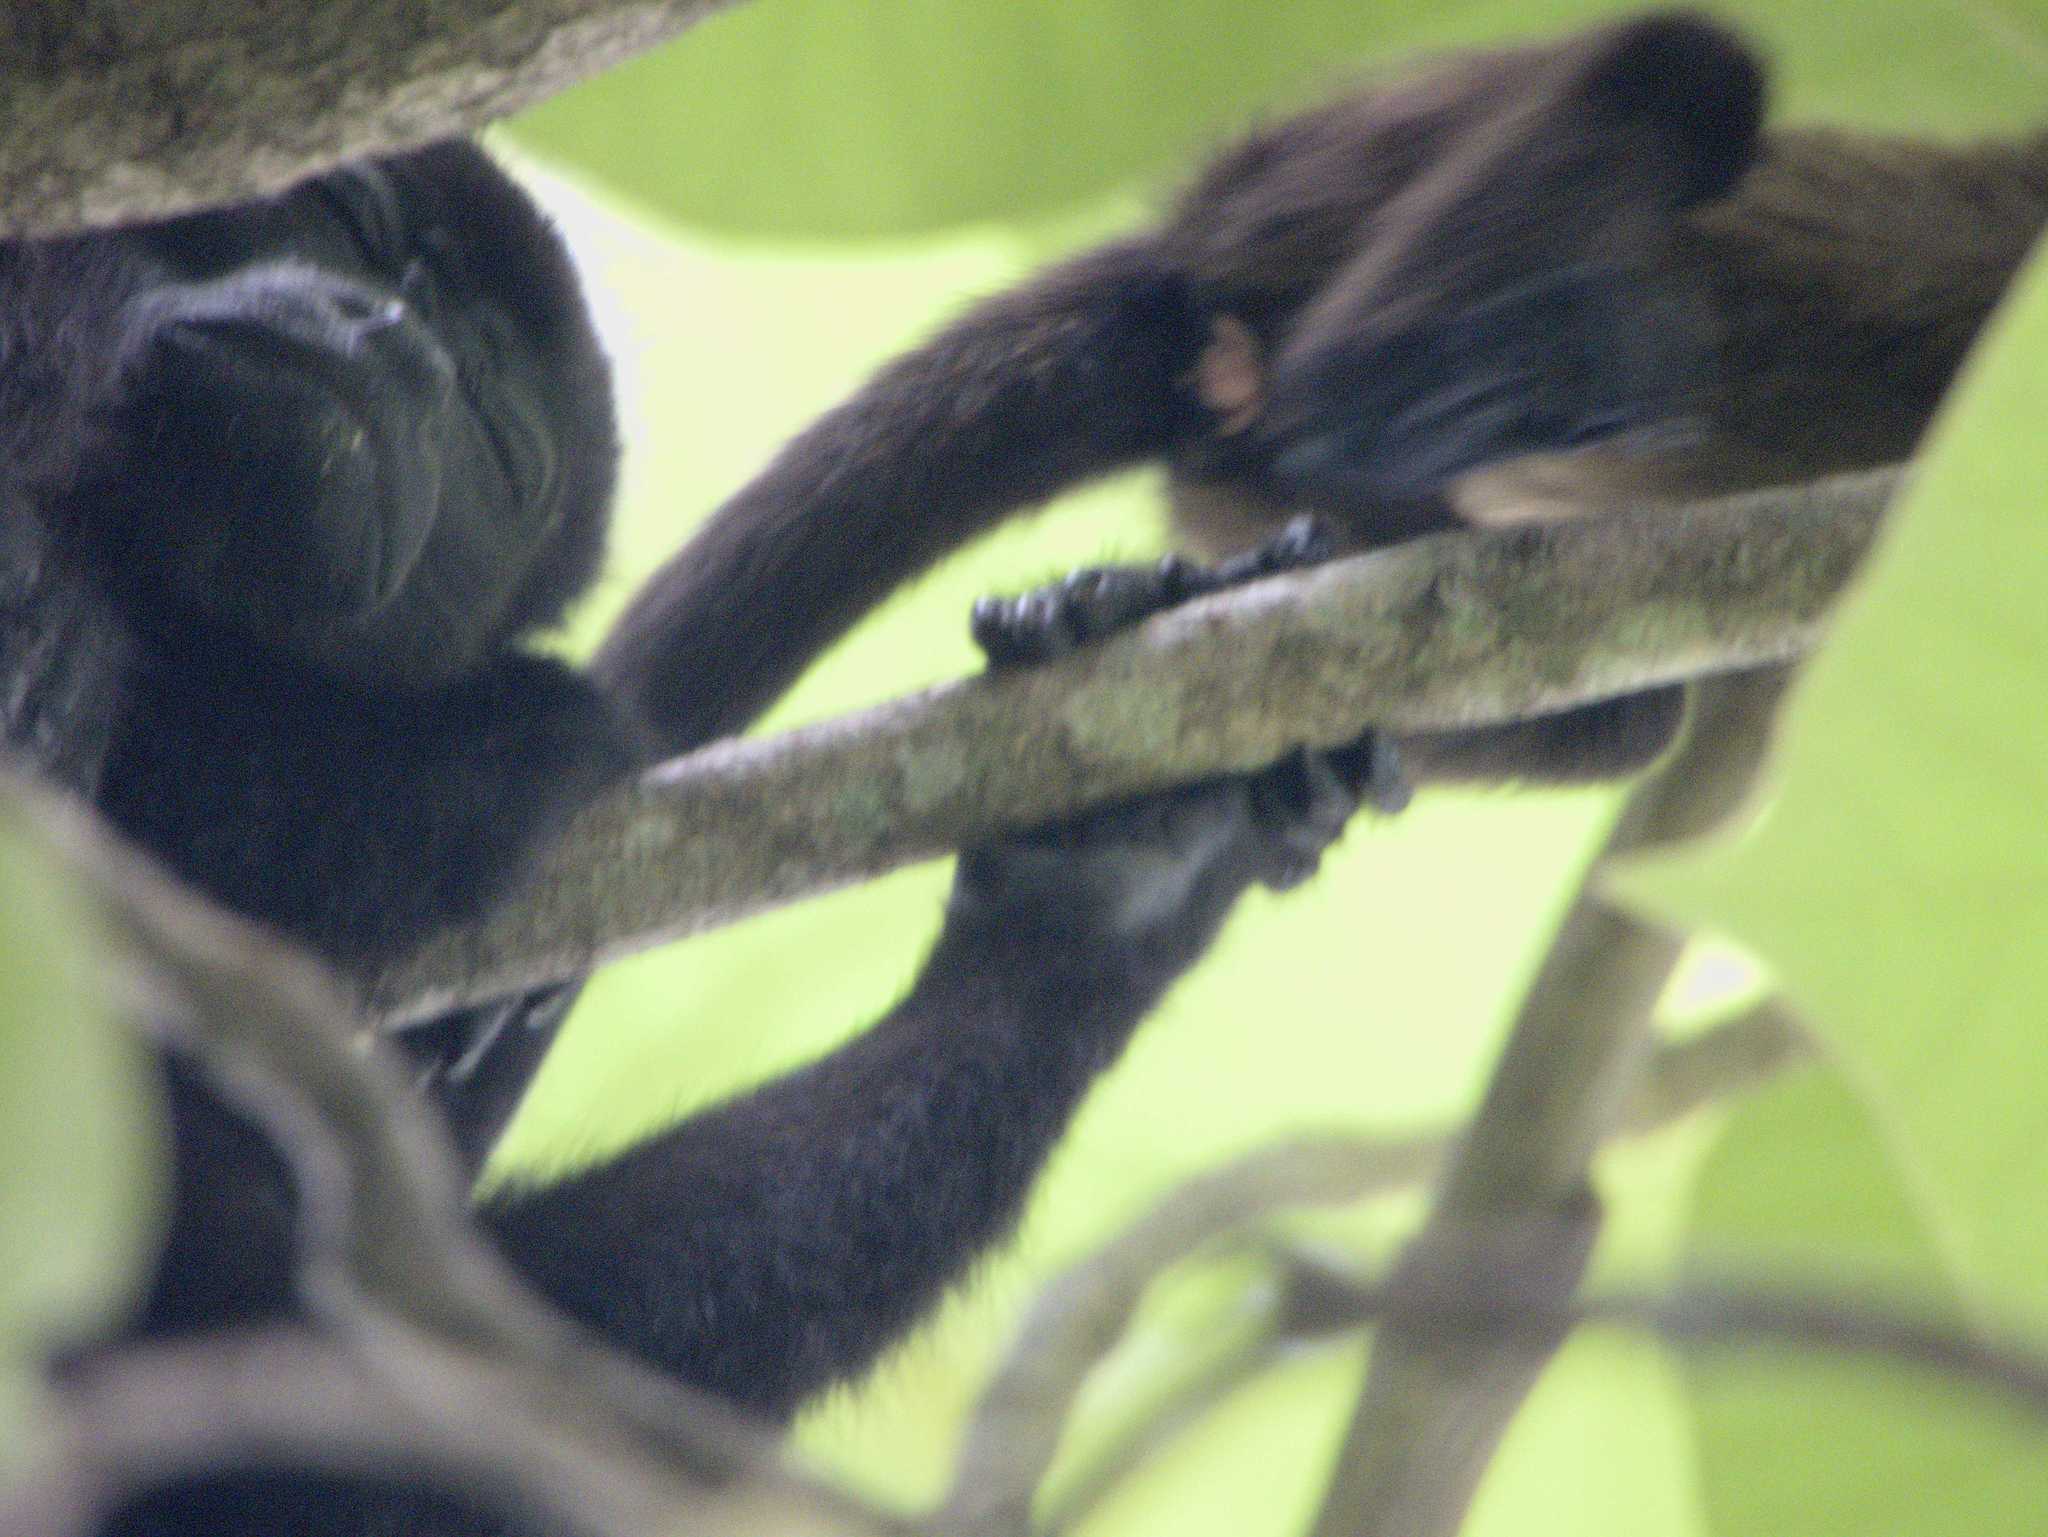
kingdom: Animalia
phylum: Chordata
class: Mammalia
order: Primates
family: Atelidae
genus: Alouatta
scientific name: Alouatta palliata
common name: Mantled howler
